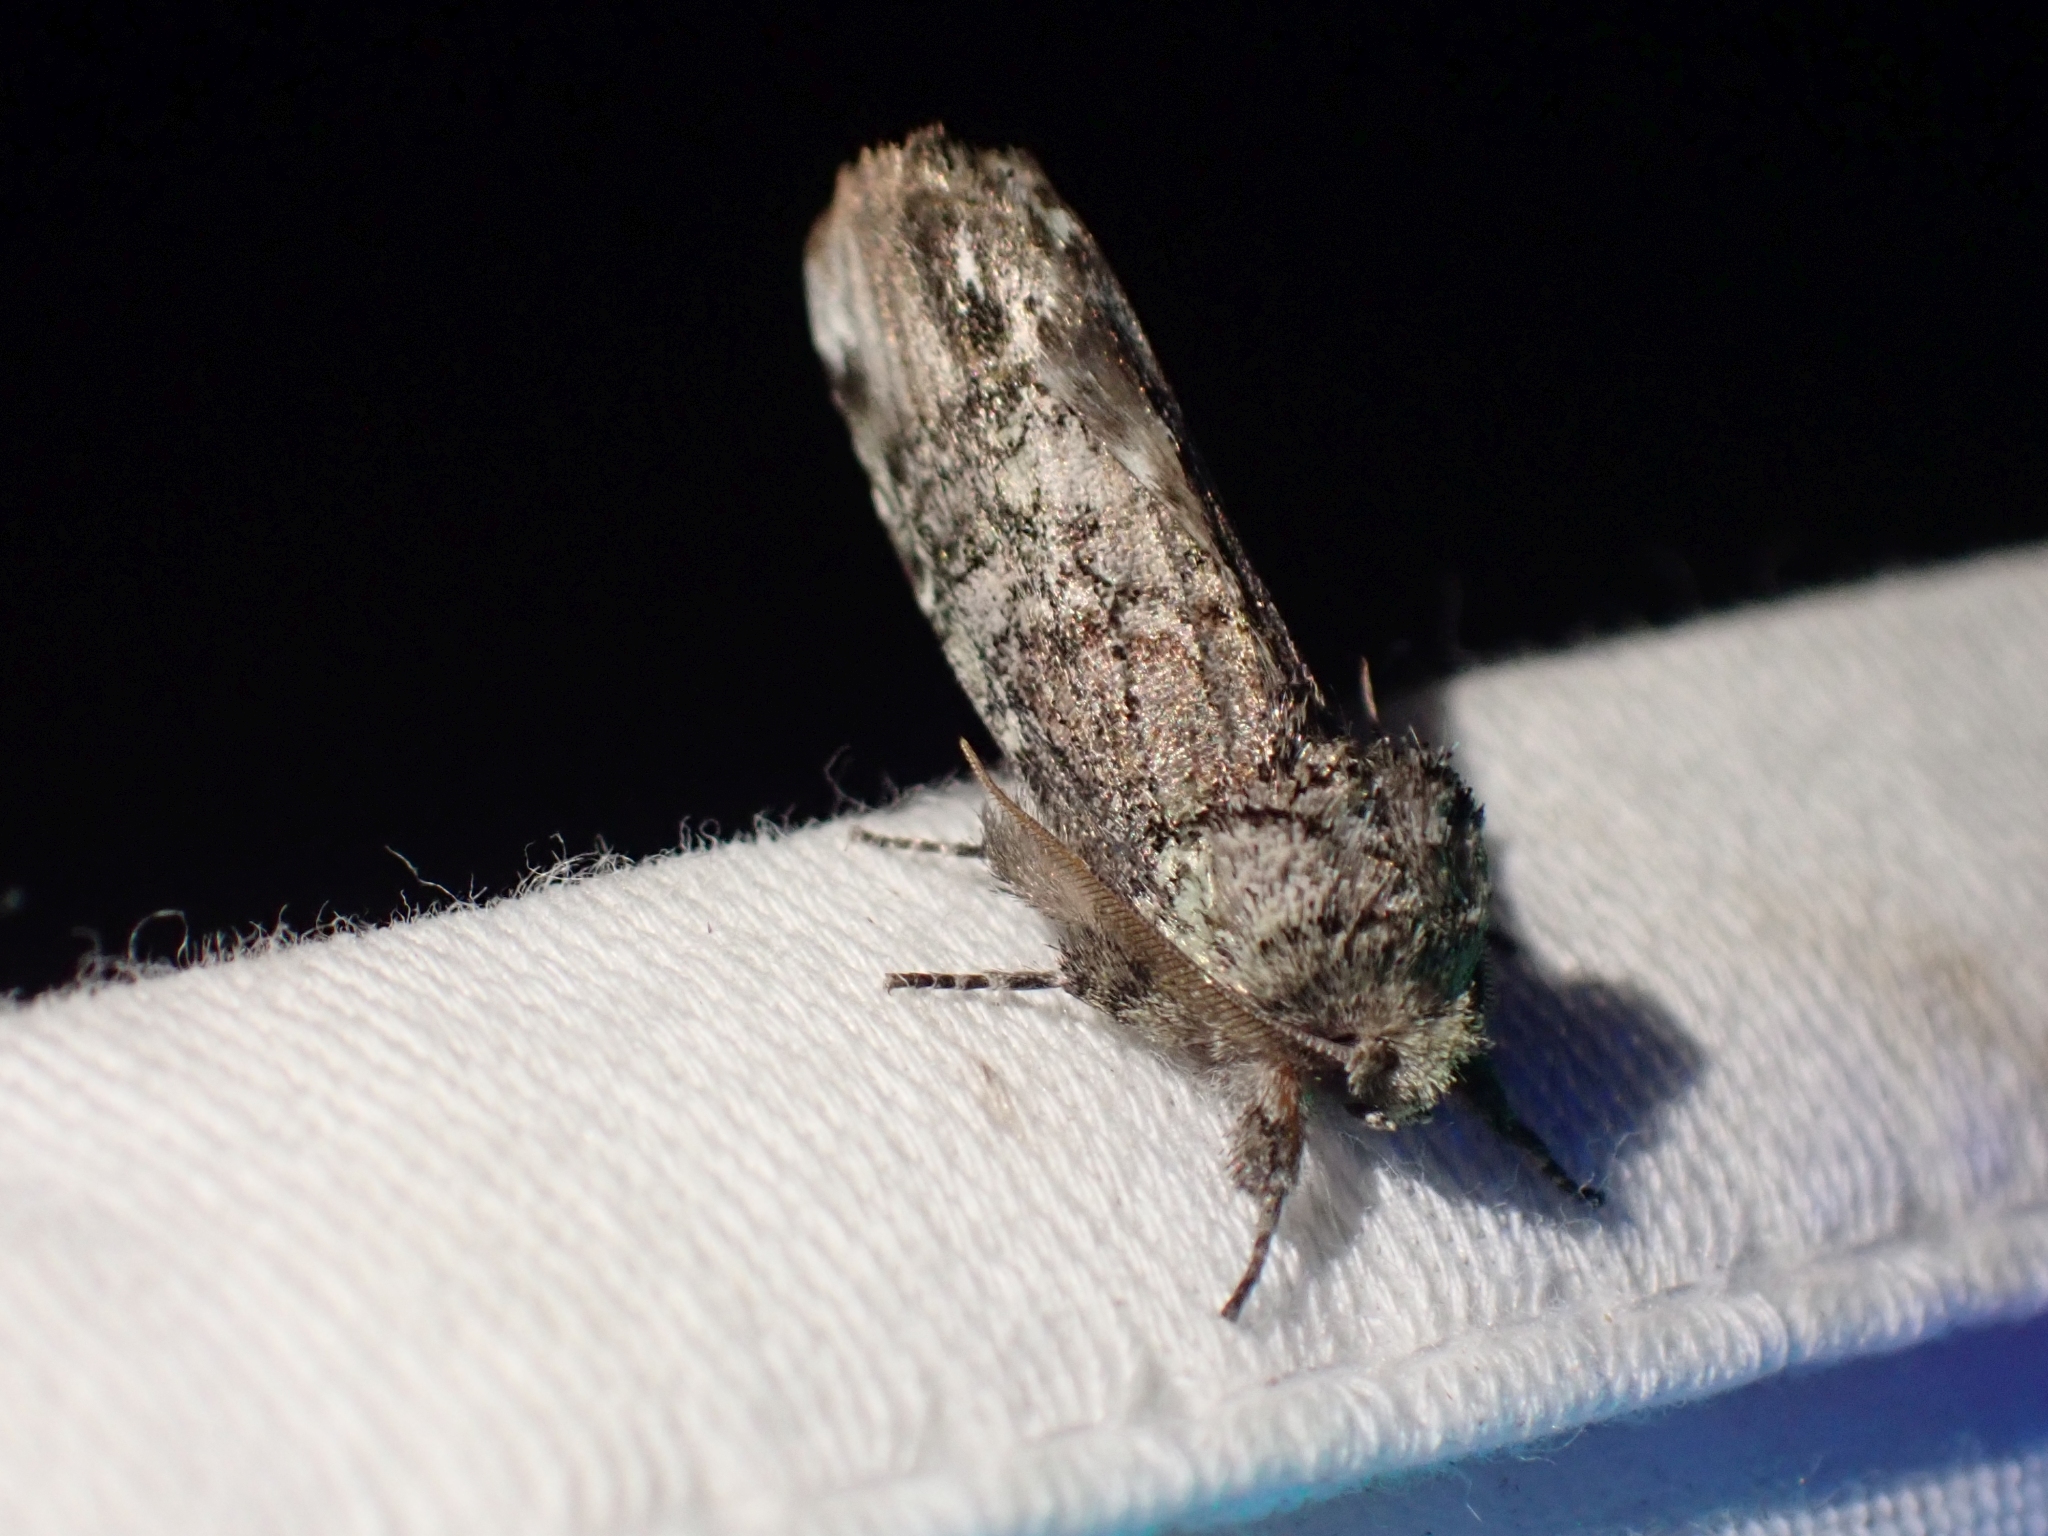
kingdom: Animalia
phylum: Arthropoda
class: Insecta
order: Lepidoptera
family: Notodontidae
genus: Schizura
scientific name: Schizura
